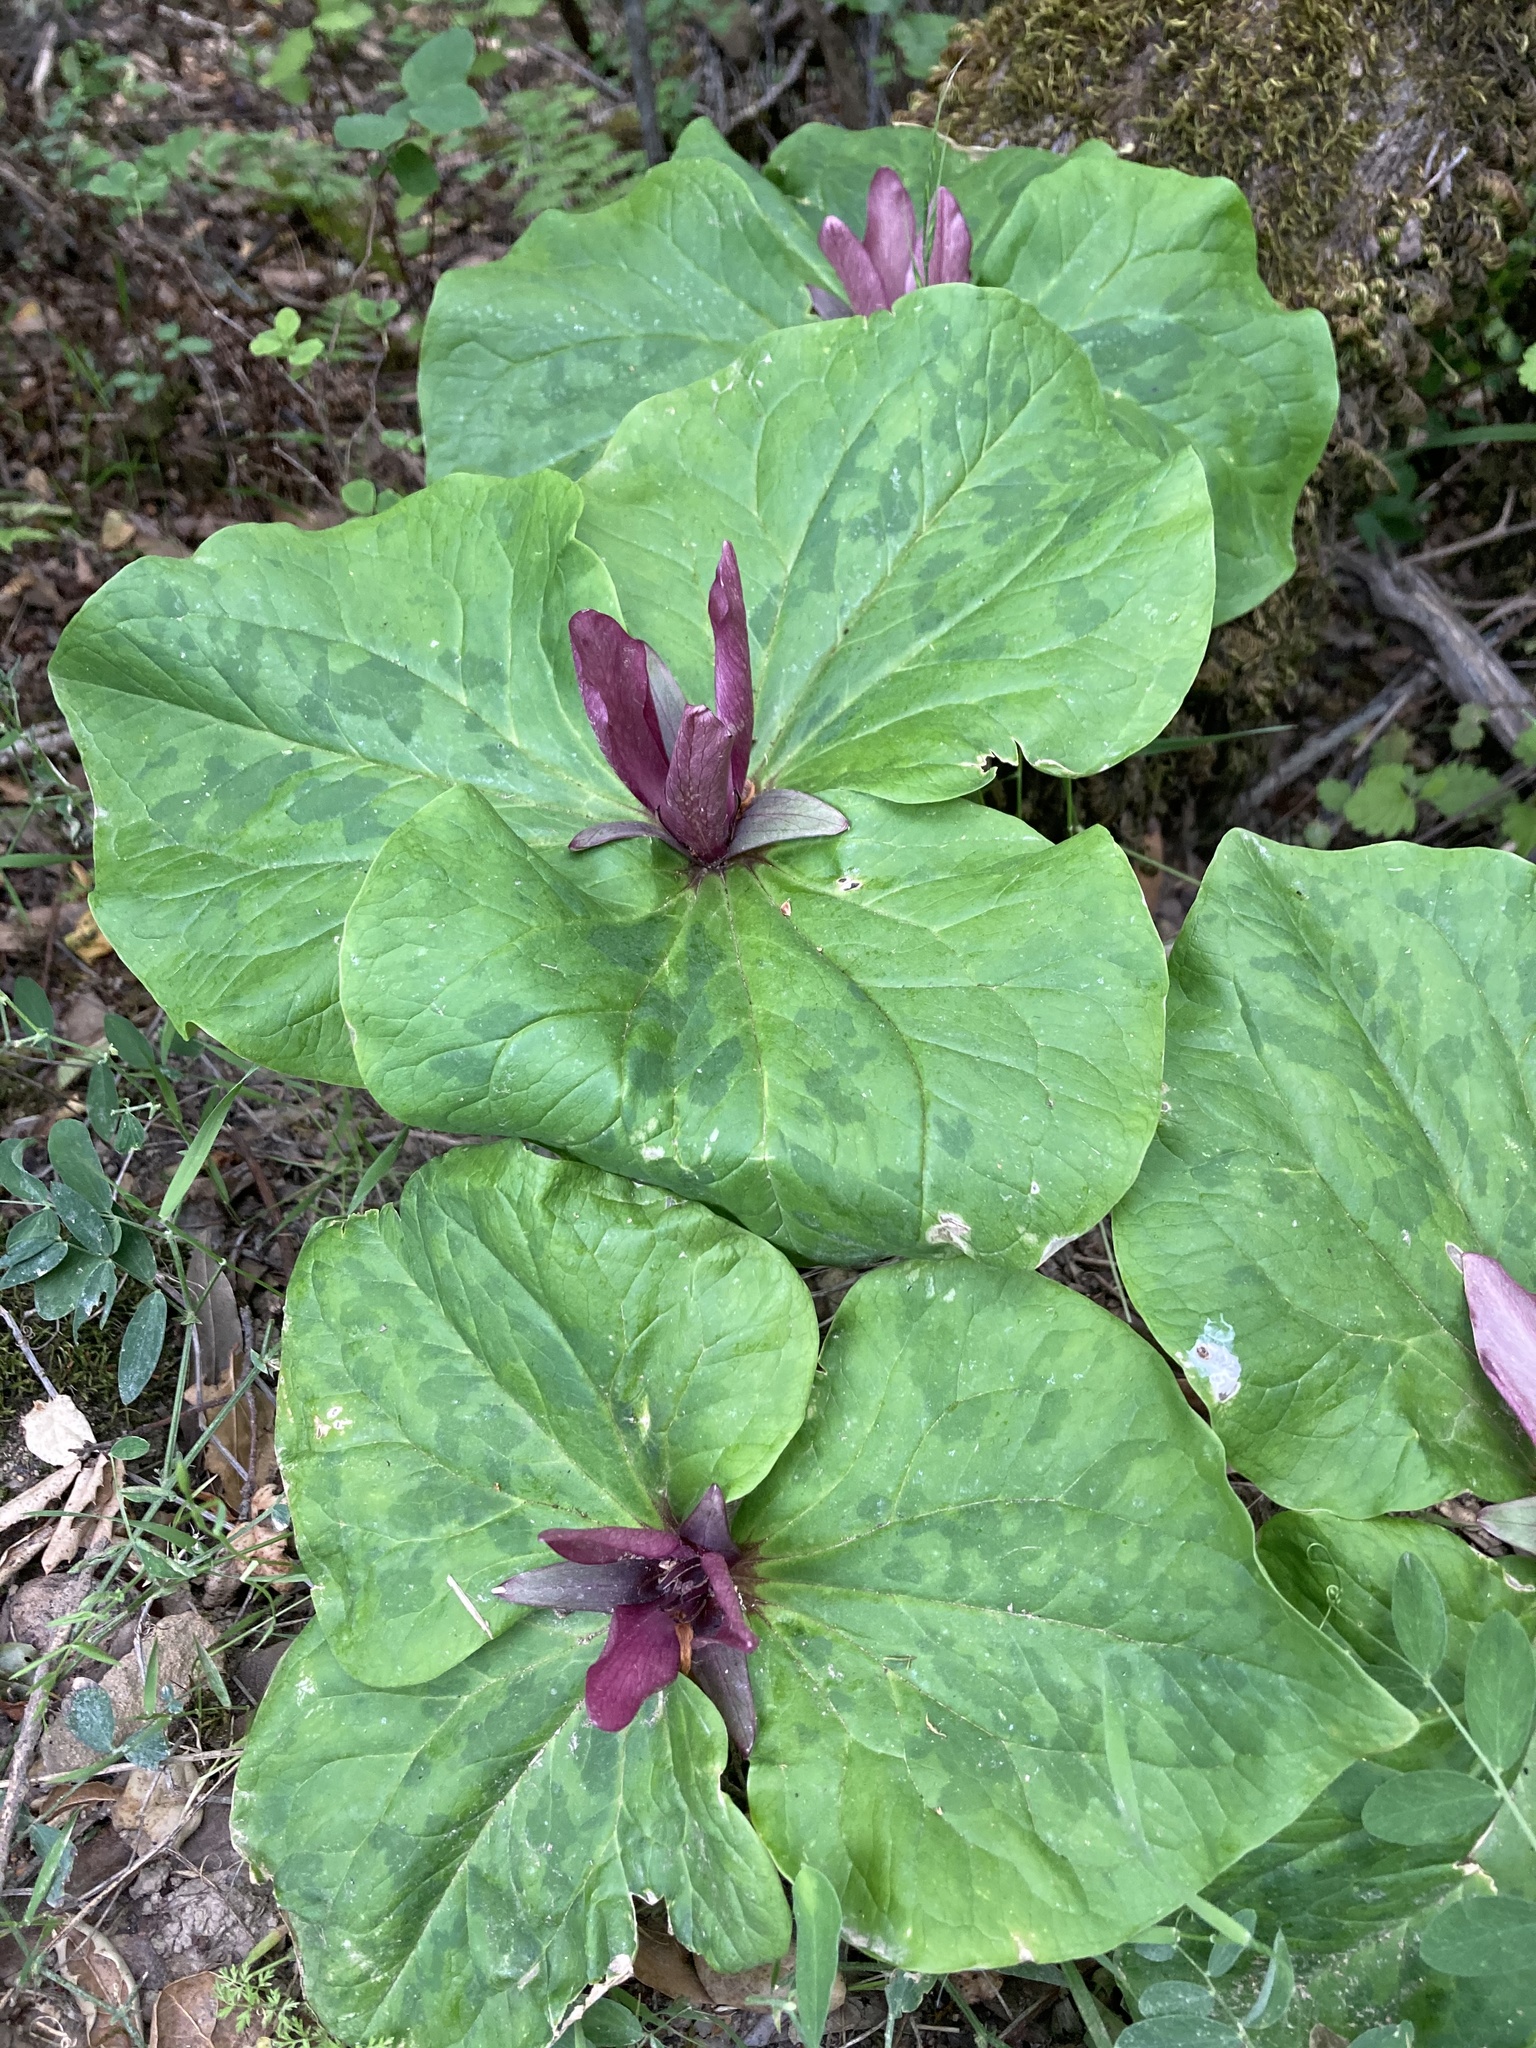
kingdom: Plantae
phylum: Tracheophyta
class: Liliopsida
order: Liliales
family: Melanthiaceae
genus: Trillium
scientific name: Trillium chloropetalum
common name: Giant trillium
